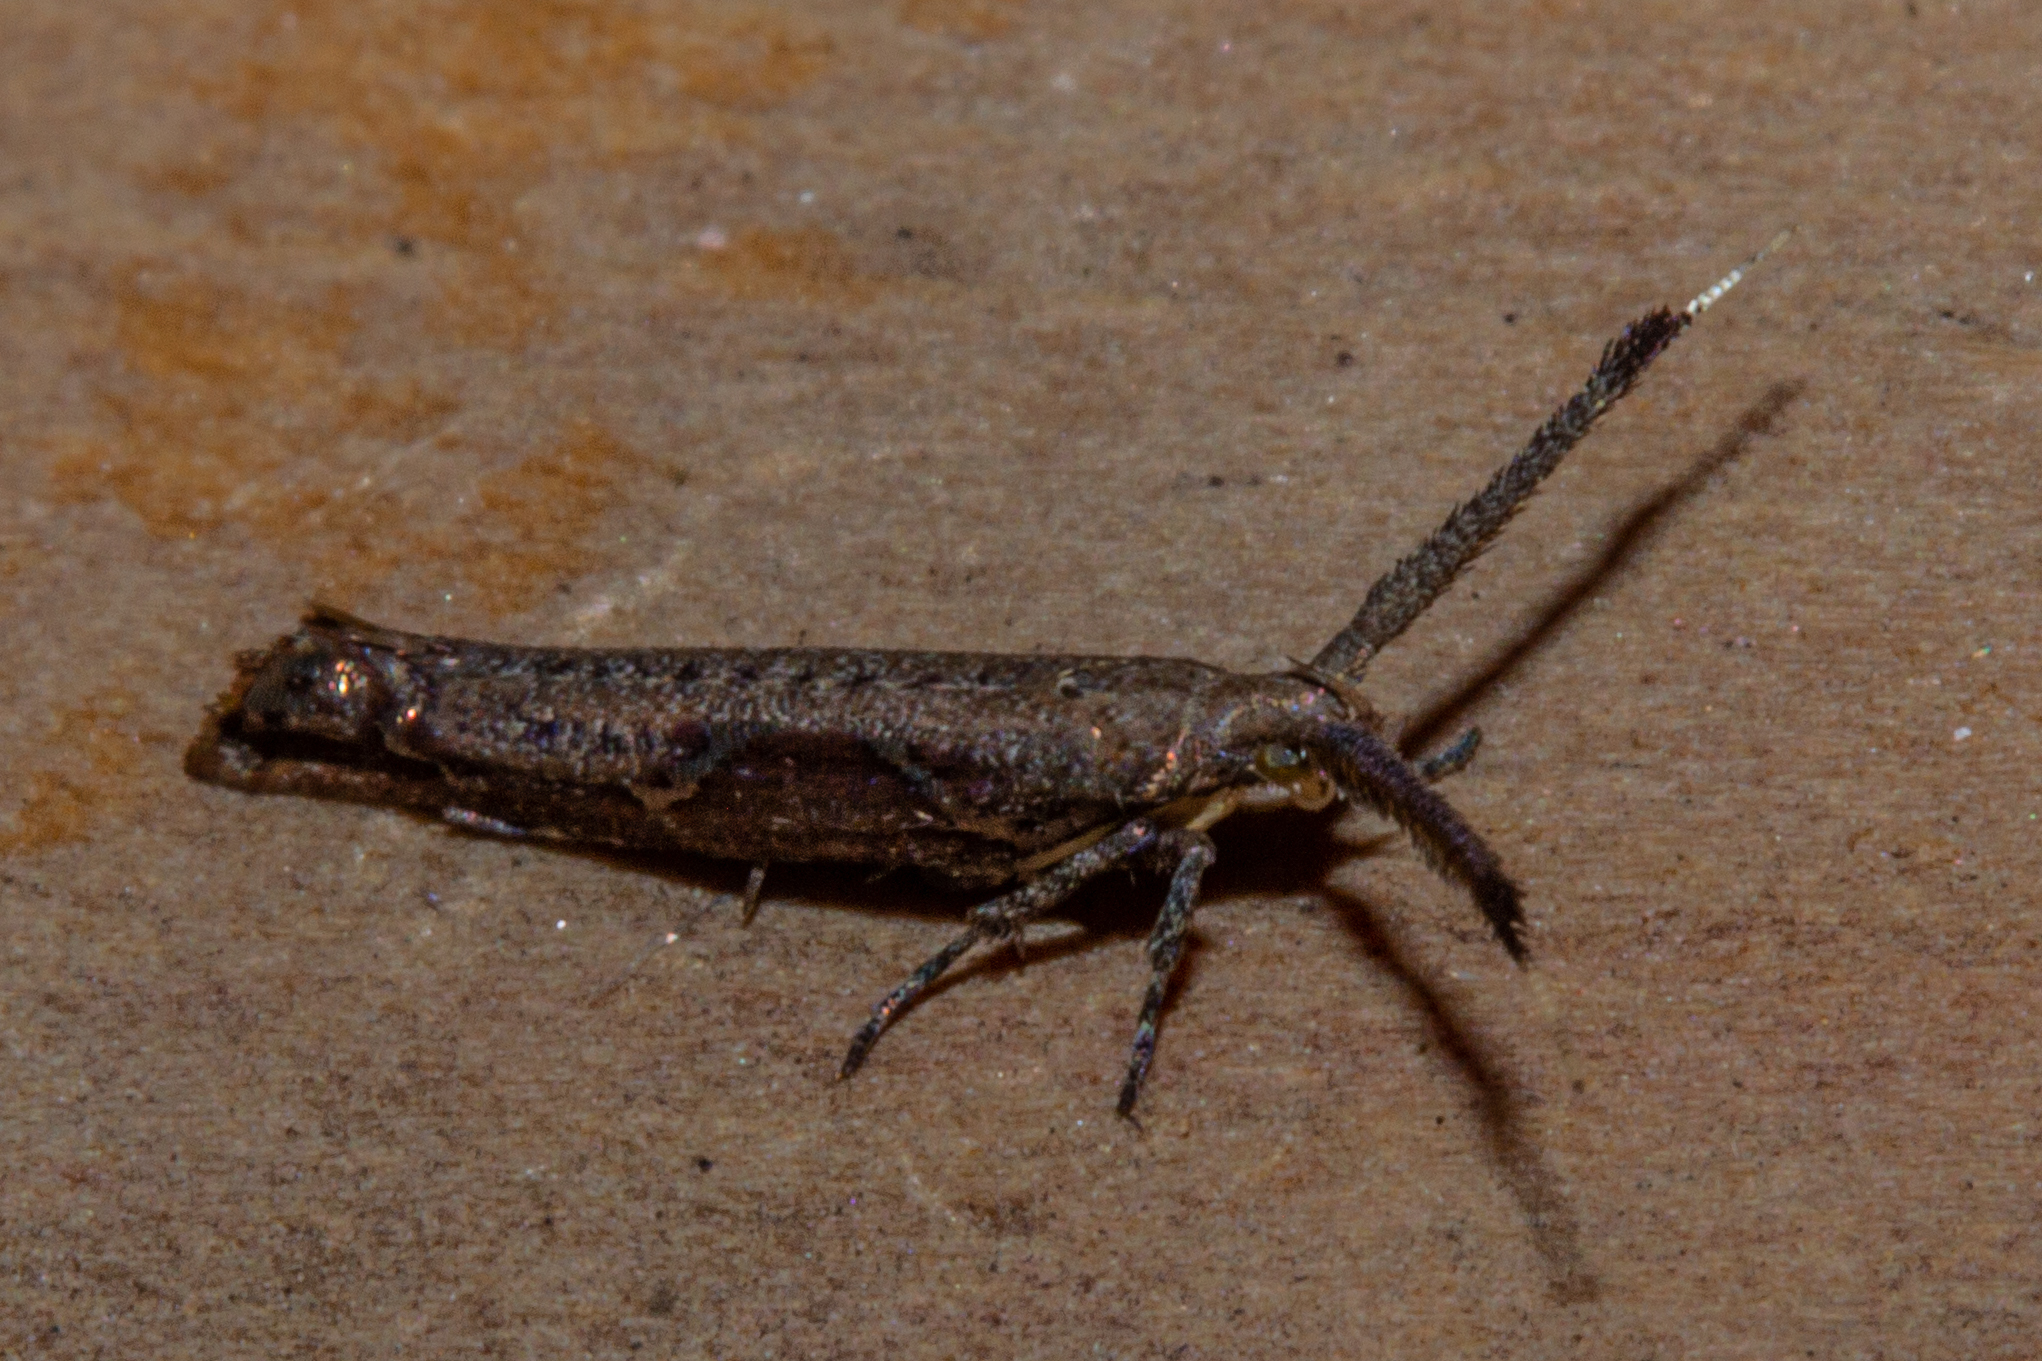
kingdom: Animalia
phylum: Arthropoda
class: Insecta
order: Lepidoptera
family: Plutellidae
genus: Protosynaema
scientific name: Protosynaema steropucha
